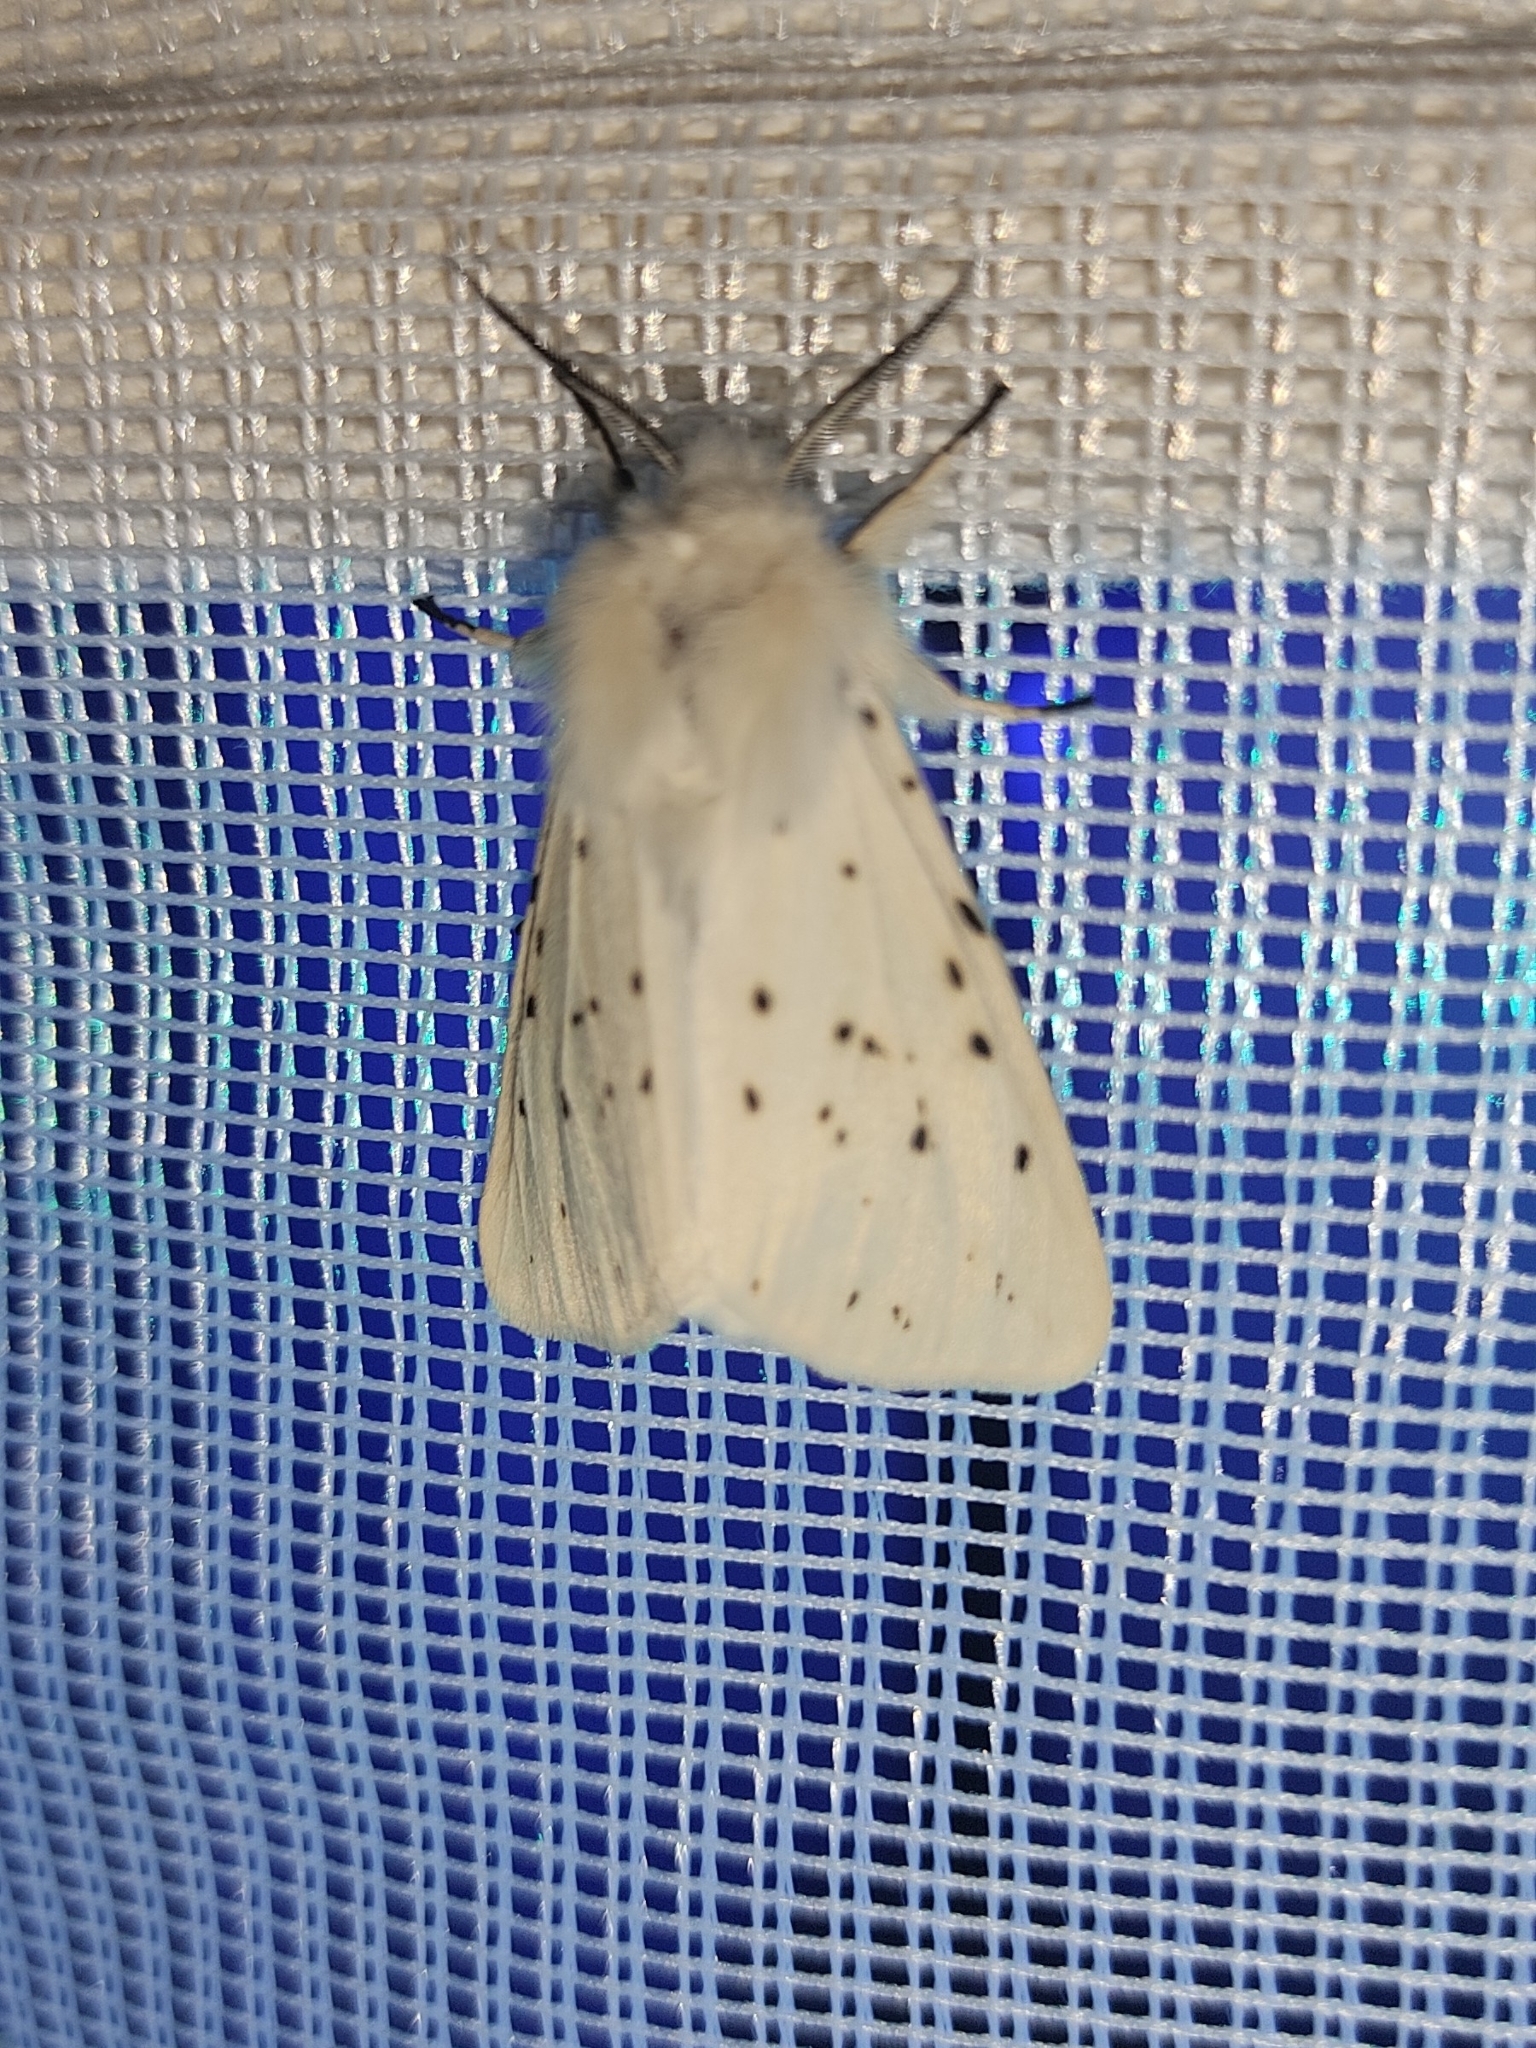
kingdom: Animalia
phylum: Arthropoda
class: Insecta
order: Lepidoptera
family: Erebidae
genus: Spilosoma
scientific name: Spilosoma lubricipeda
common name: White ermine
